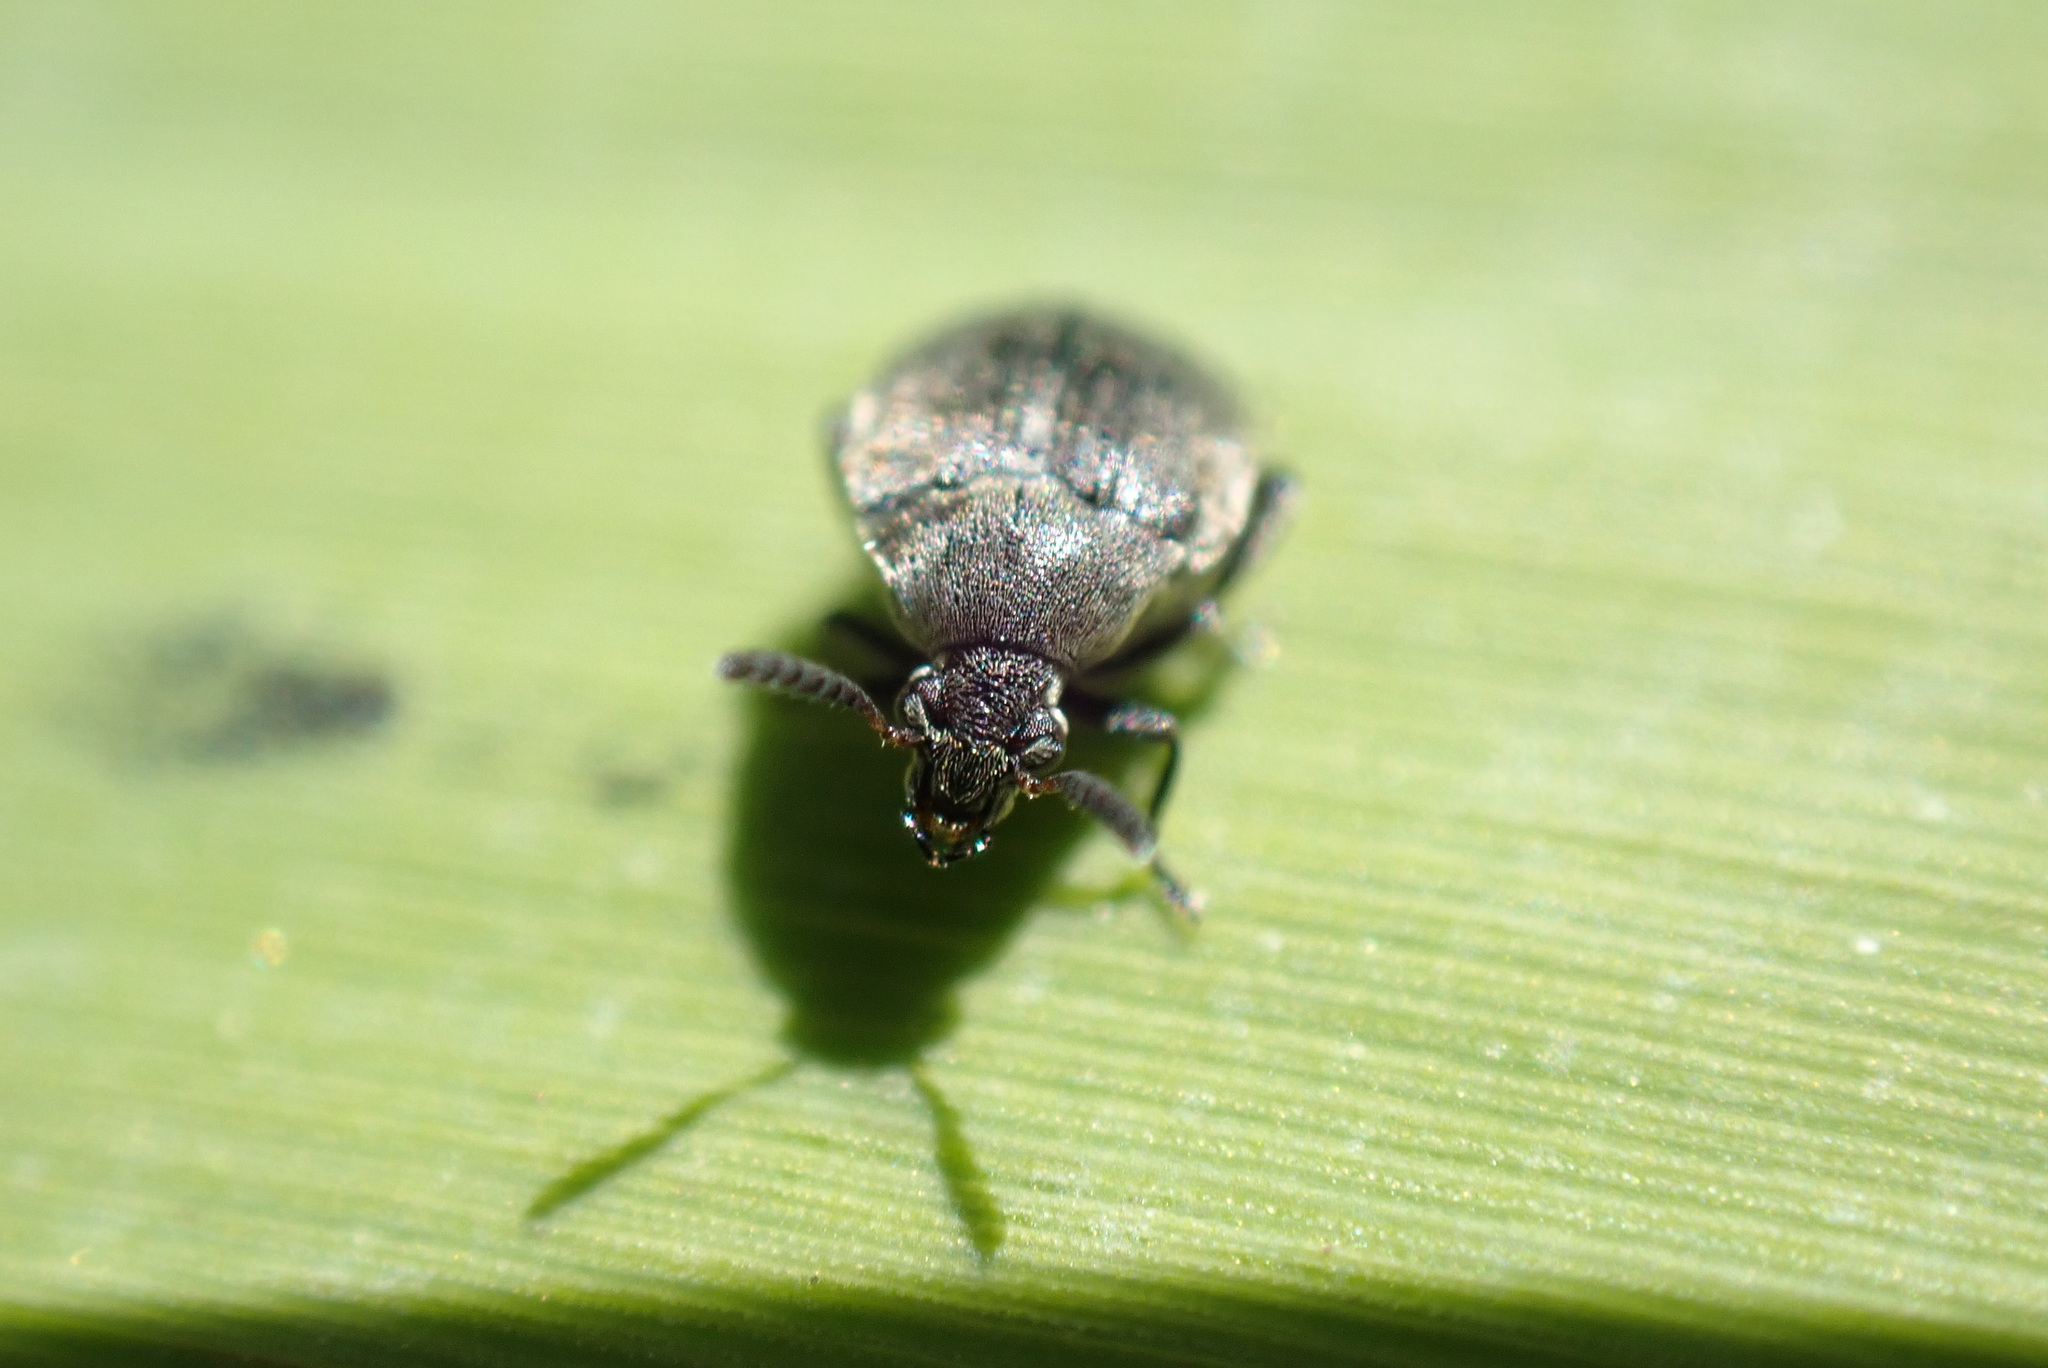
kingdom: Animalia
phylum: Arthropoda
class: Insecta
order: Coleoptera
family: Chrysomelidae
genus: Bruchidius
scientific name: Bruchidius villosus
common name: Scotch broom bruchid
